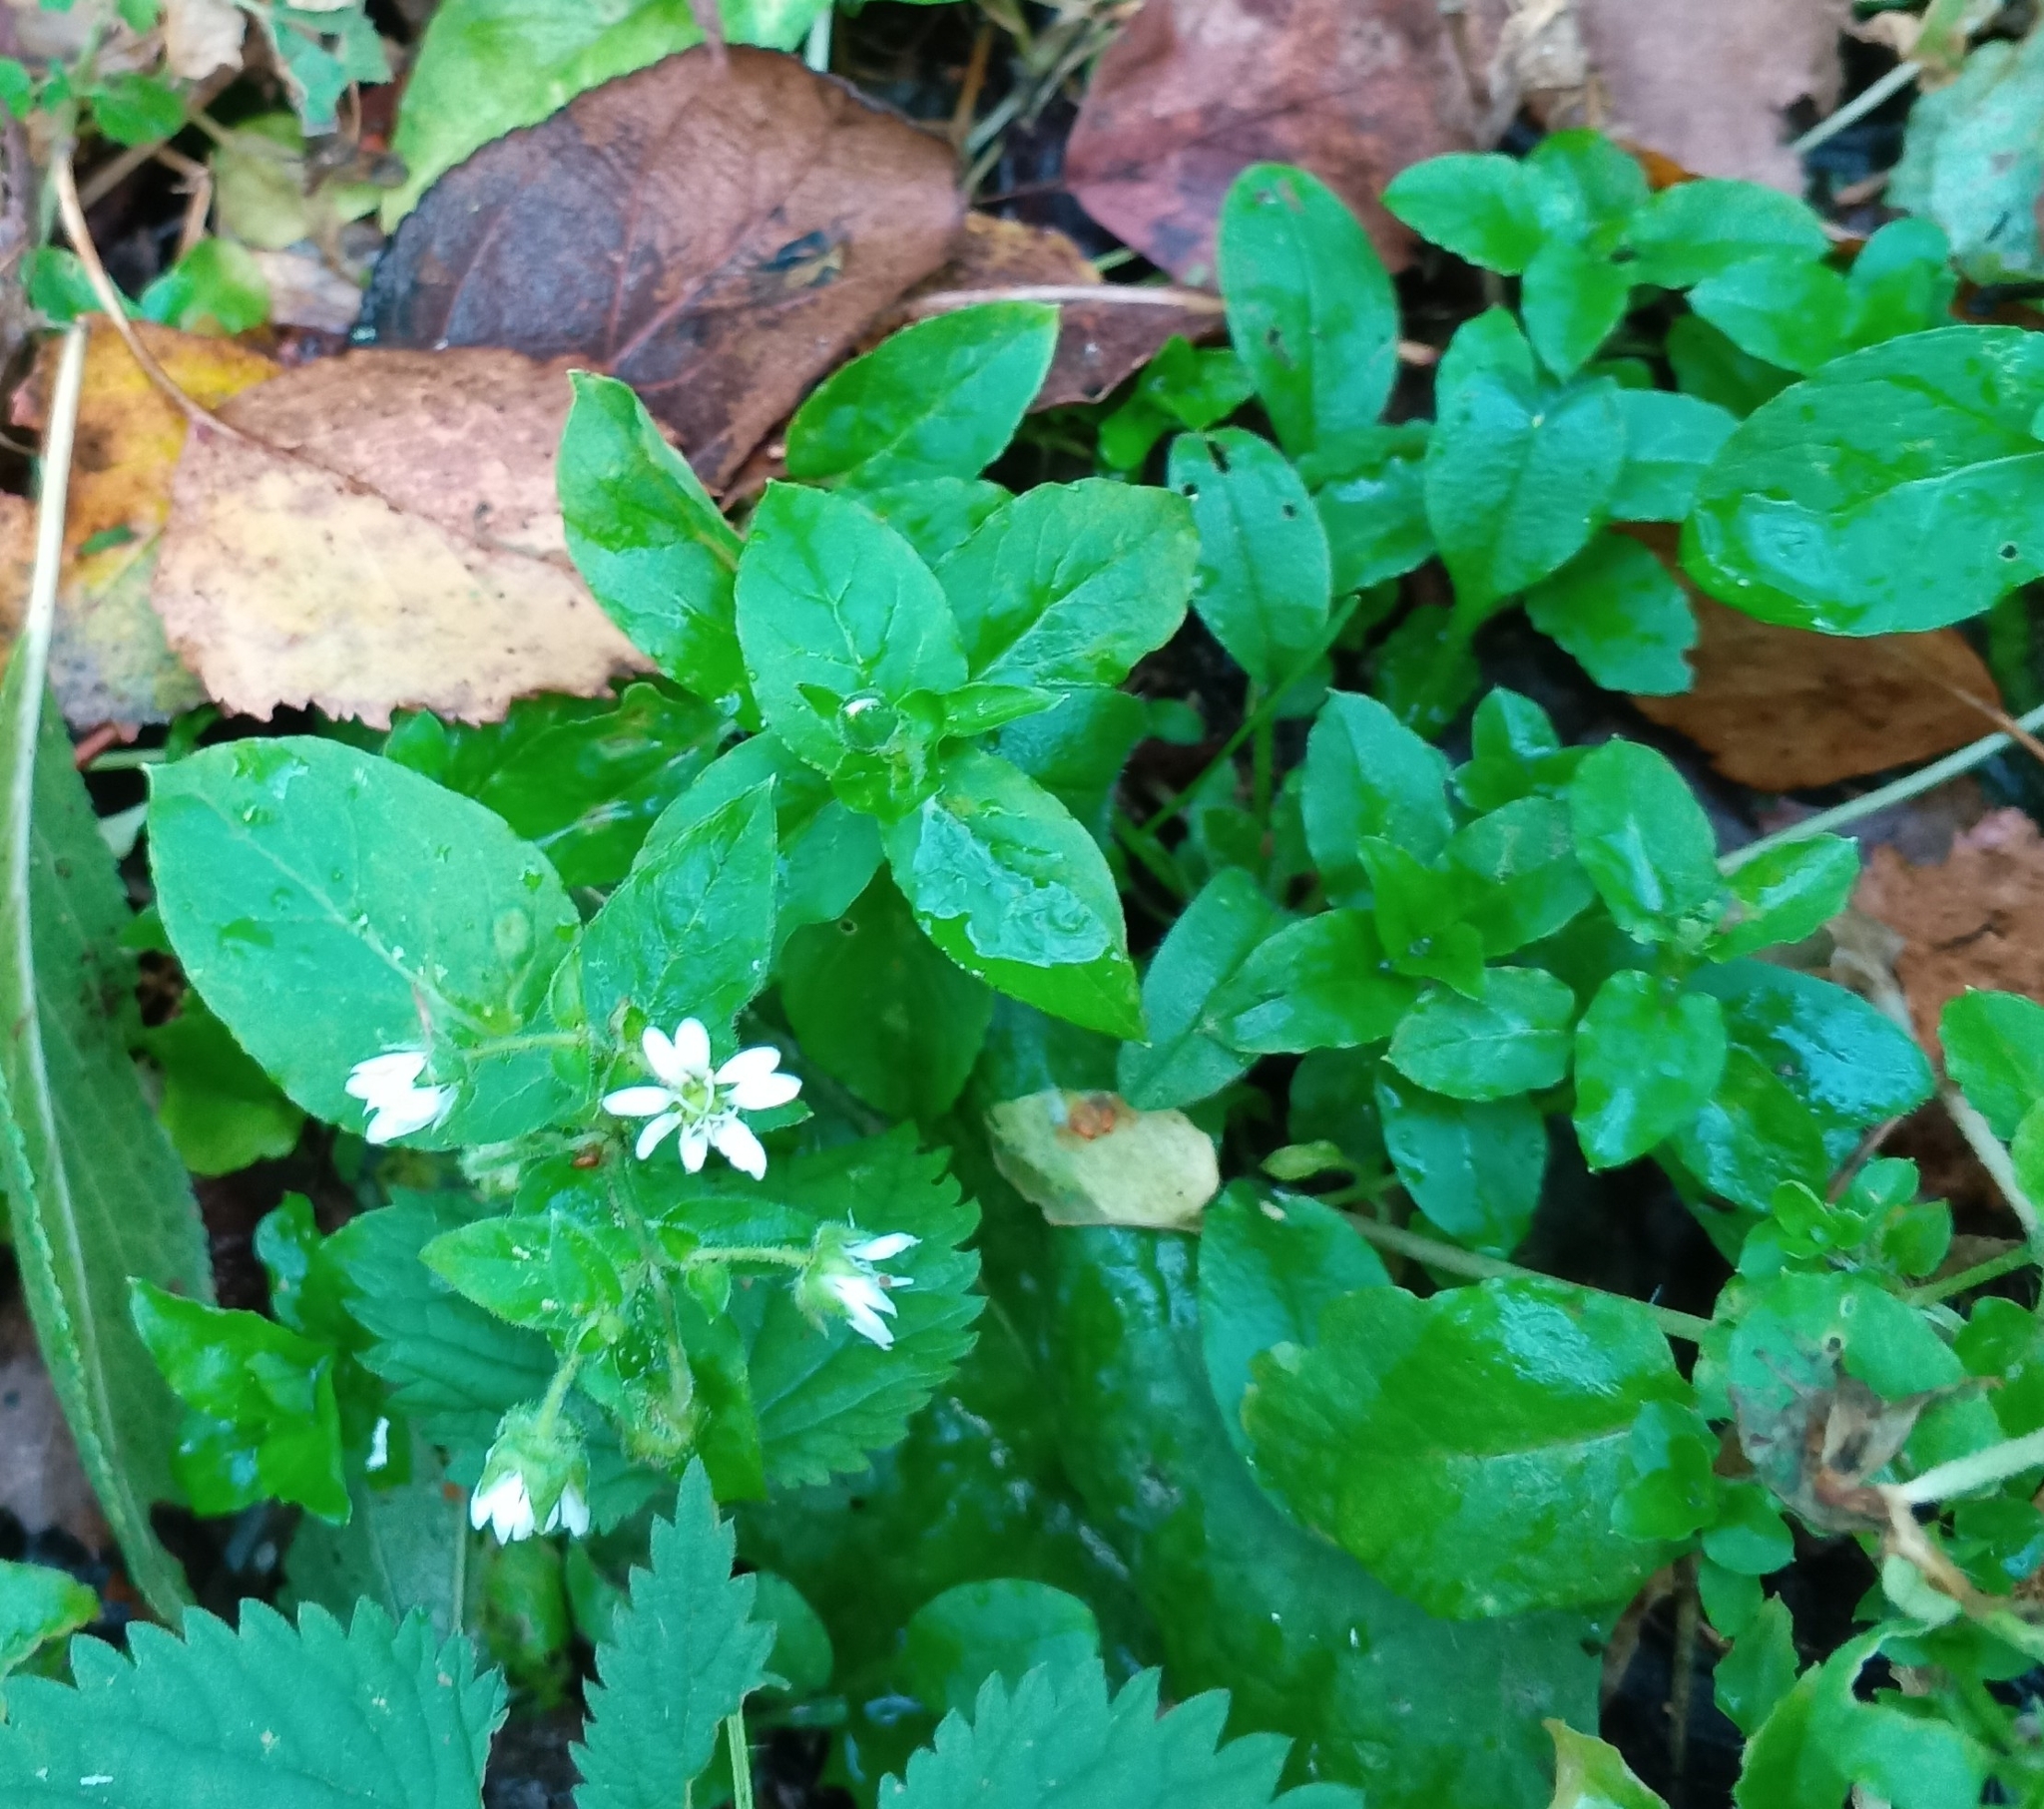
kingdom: Plantae
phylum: Tracheophyta
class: Magnoliopsida
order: Caryophyllales
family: Caryophyllaceae
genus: Stellaria
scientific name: Stellaria aquatica
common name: Water chickweed
